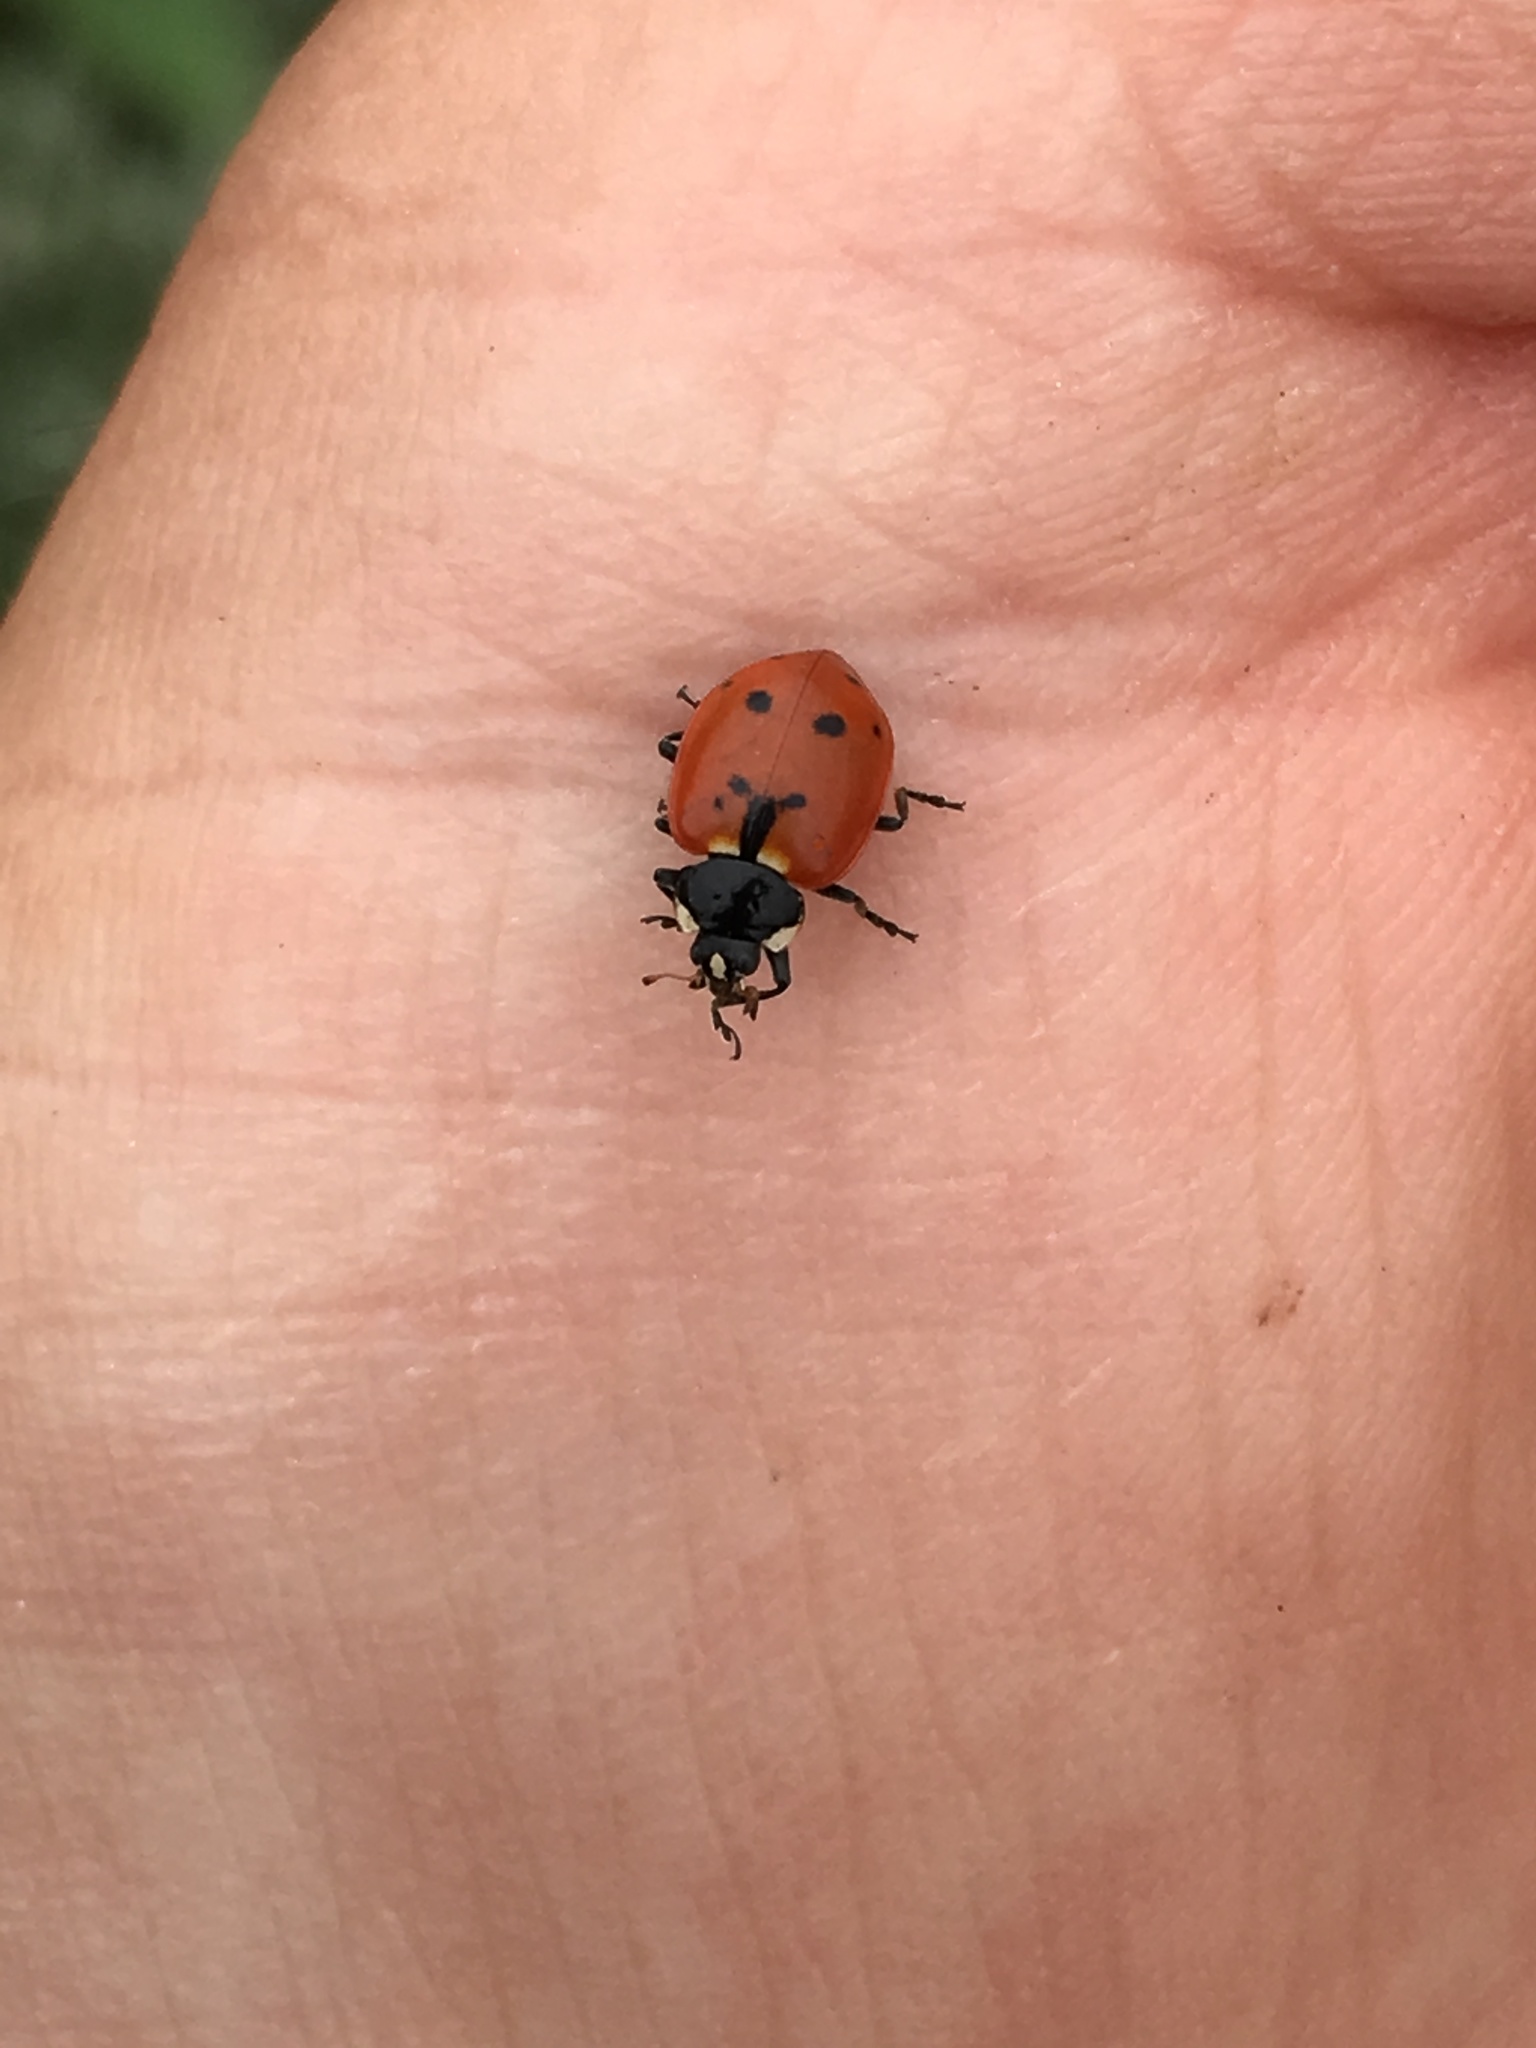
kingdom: Animalia
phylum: Arthropoda
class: Insecta
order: Coleoptera
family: Coccinellidae
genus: Hippodamia
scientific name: Hippodamia quinquesignata
